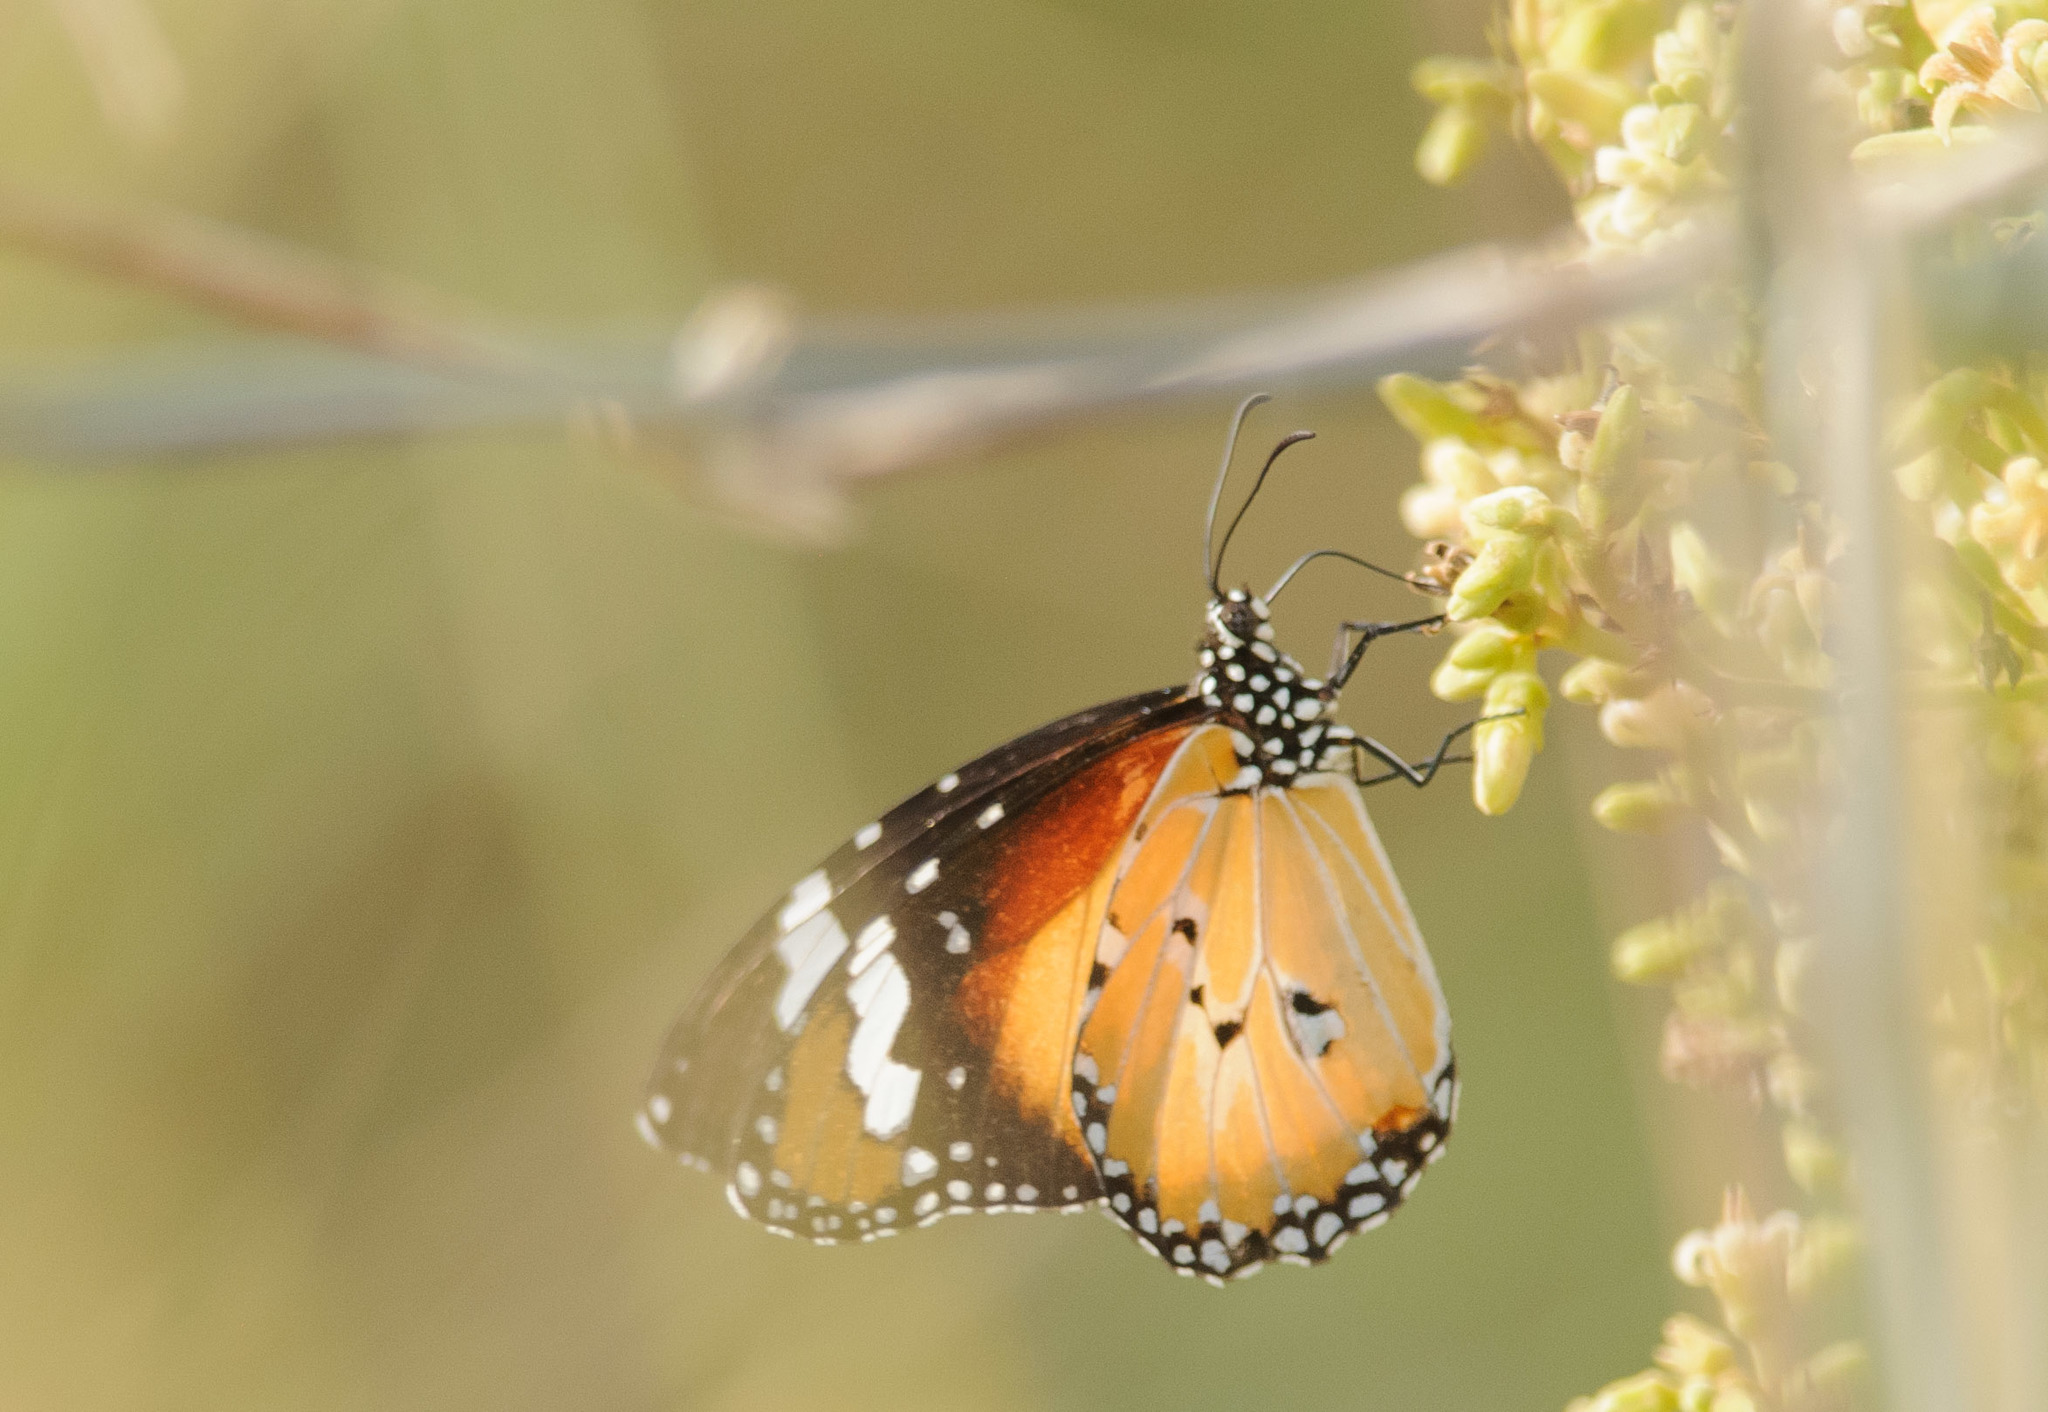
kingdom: Animalia
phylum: Arthropoda
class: Insecta
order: Lepidoptera
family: Nymphalidae
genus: Danaus
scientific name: Danaus chrysippus
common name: Plain tiger
